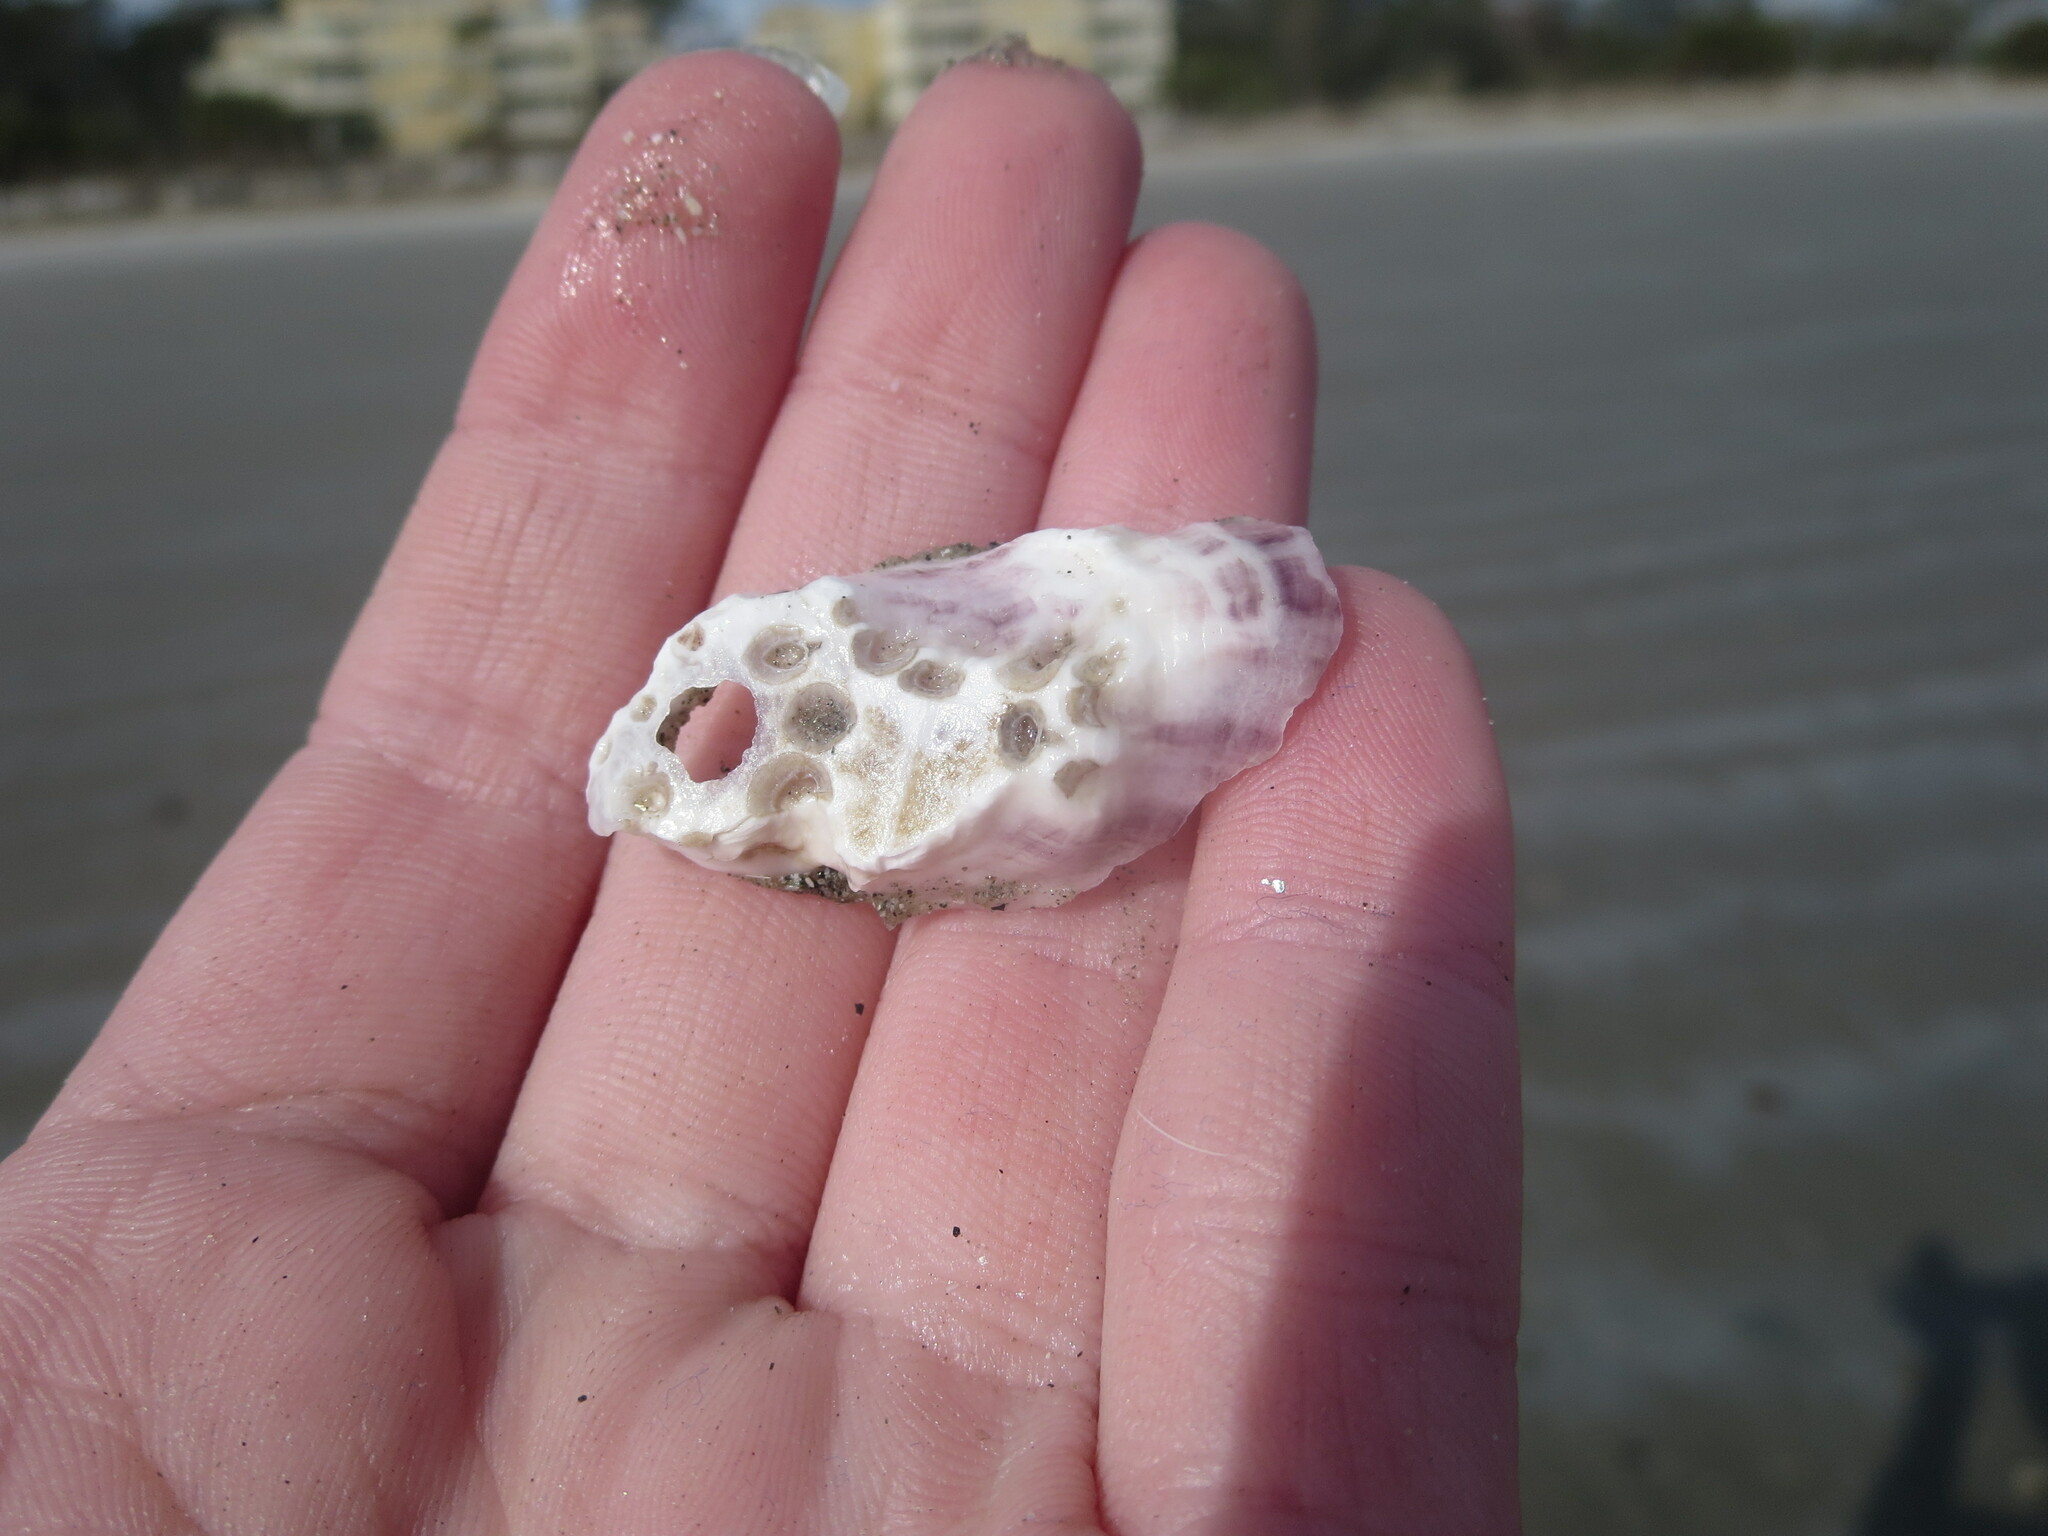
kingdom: Animalia
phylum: Mollusca
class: Bivalvia
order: Ostreida
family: Ostreidae
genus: Crassostrea
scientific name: Crassostrea virginica
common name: American oyster
